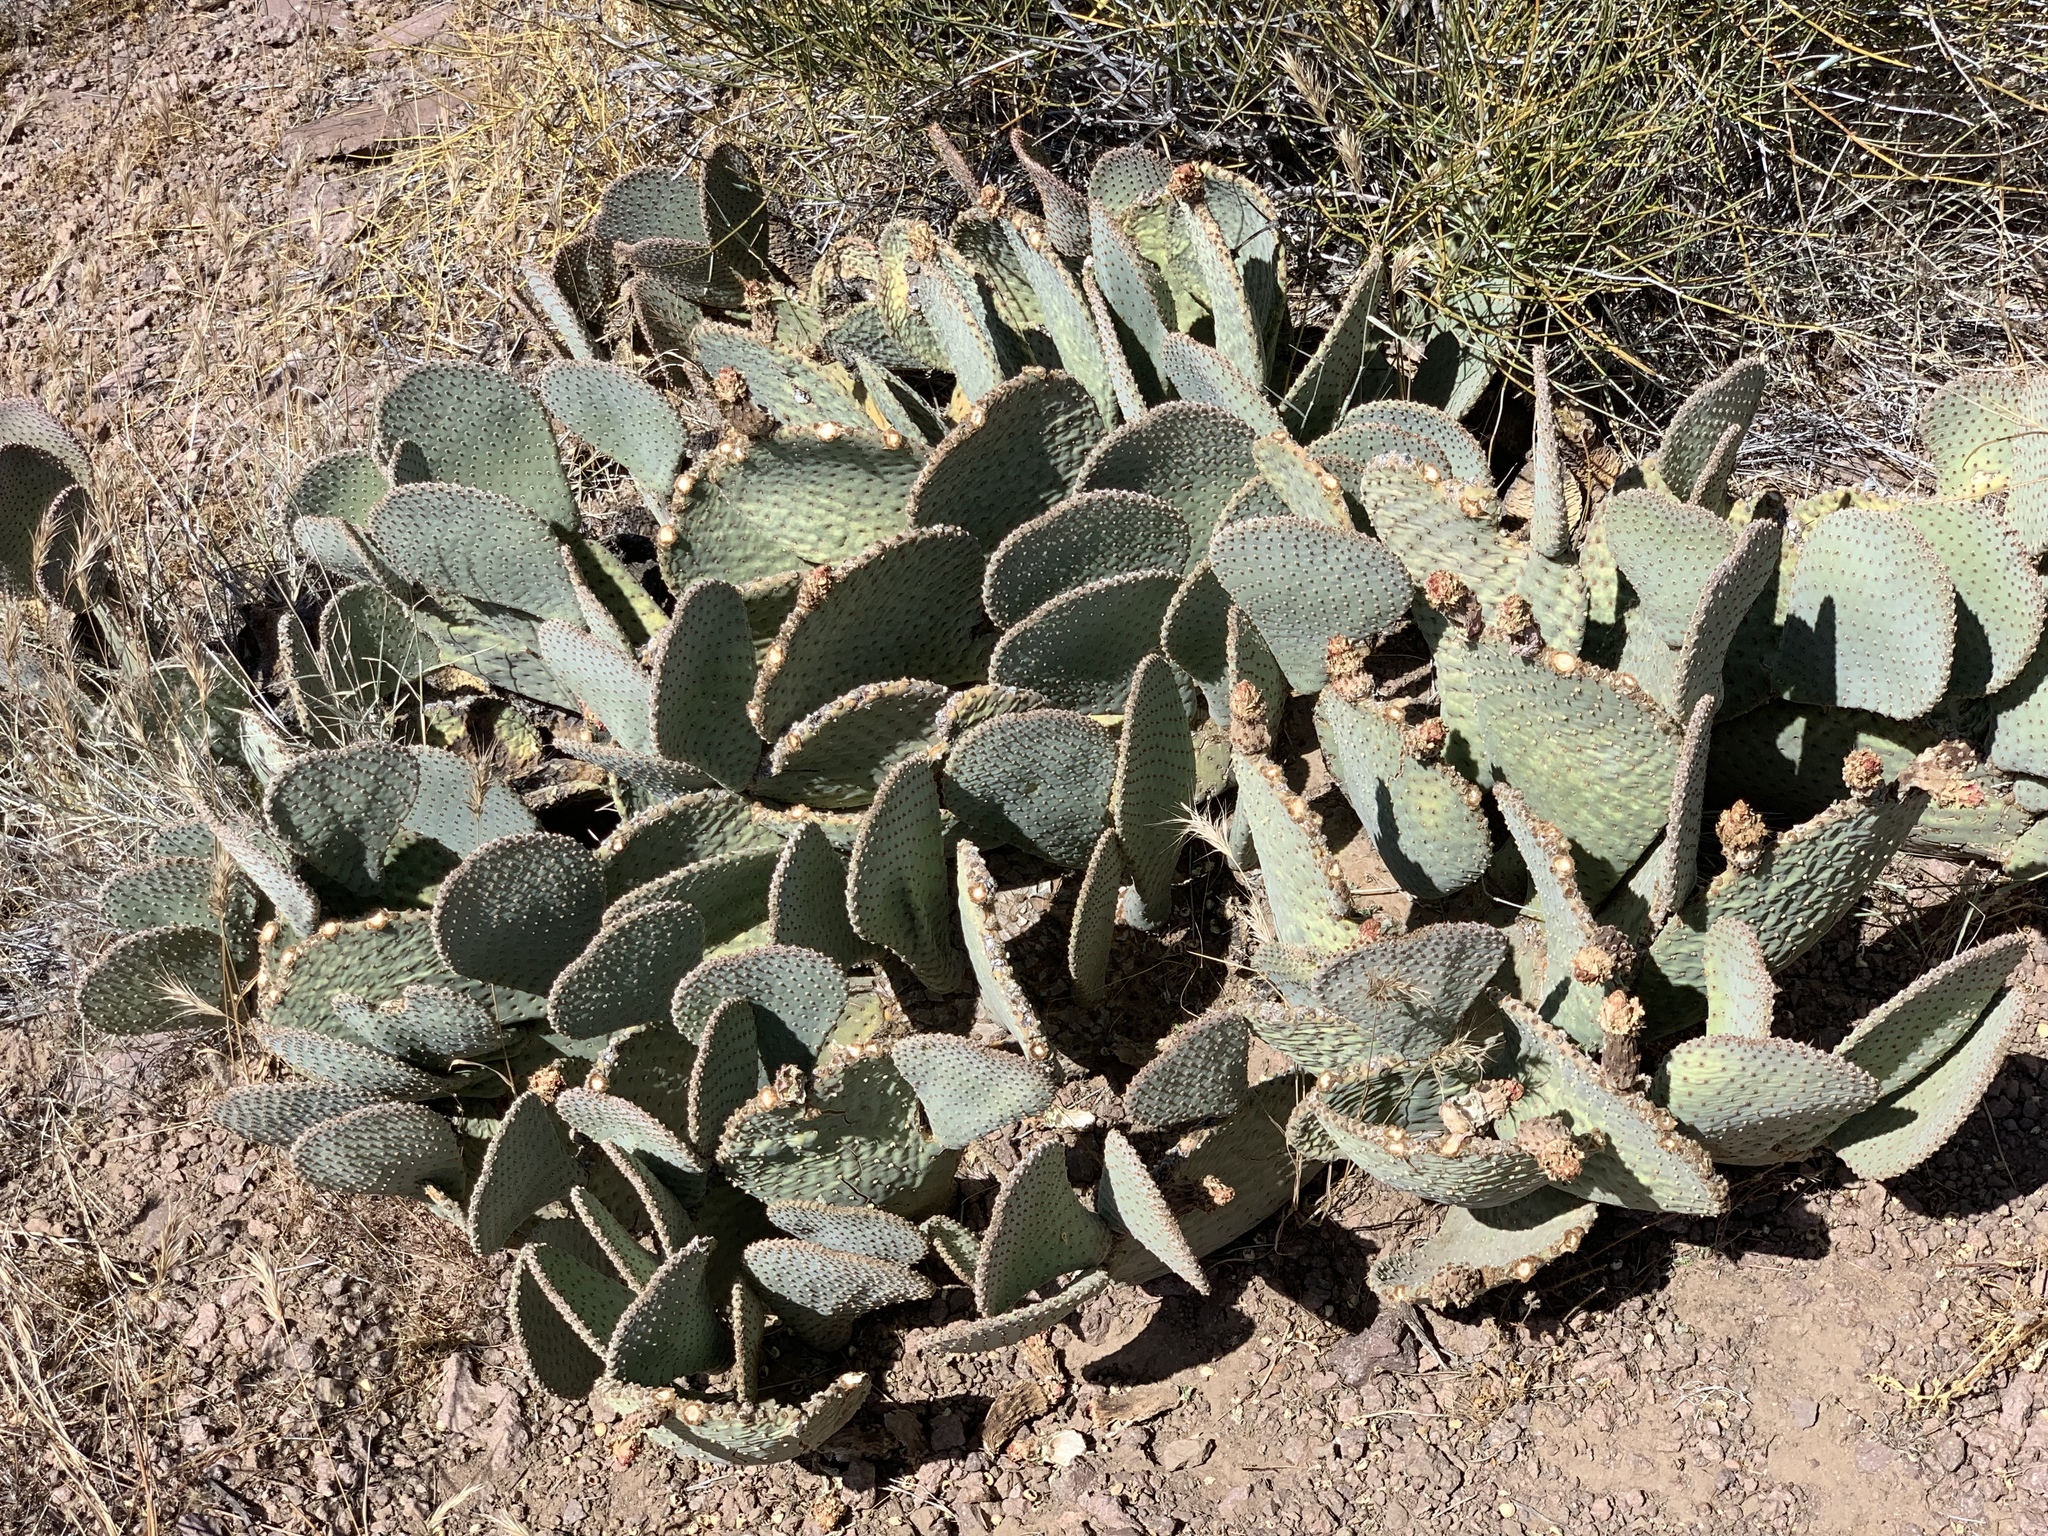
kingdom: Plantae
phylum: Tracheophyta
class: Magnoliopsida
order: Caryophyllales
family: Cactaceae
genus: Opuntia
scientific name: Opuntia basilaris
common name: Beavertail prickly-pear
